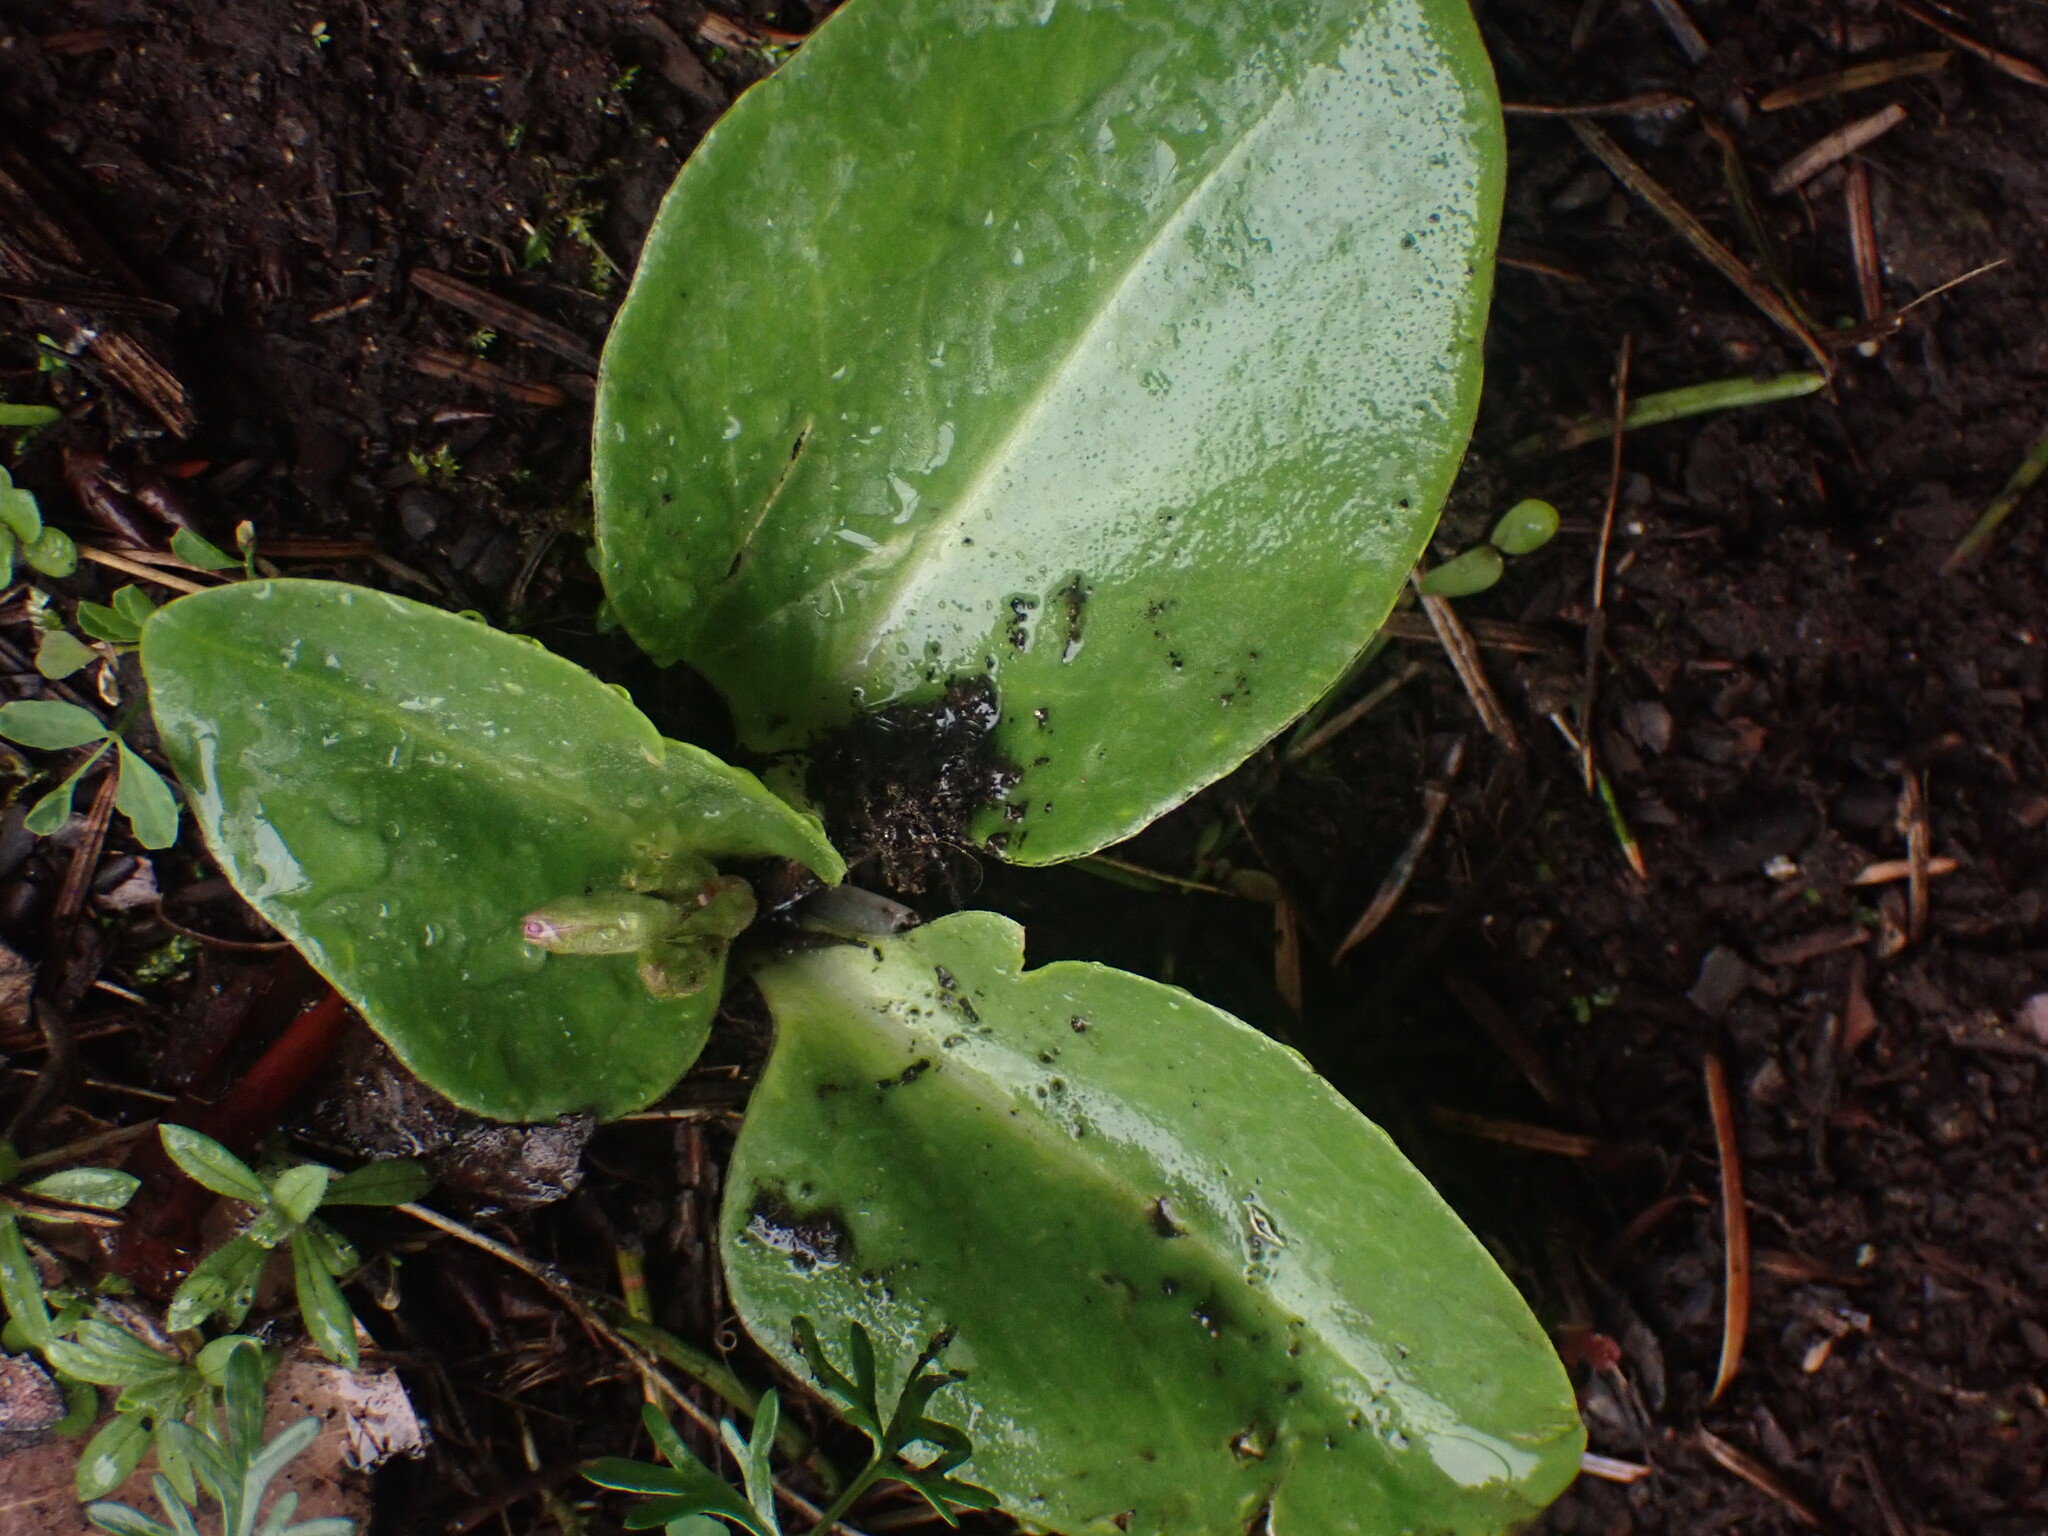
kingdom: Plantae
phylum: Tracheophyta
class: Magnoliopsida
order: Ericales
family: Primulaceae
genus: Dodecatheon
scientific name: Dodecatheon hendersonii
